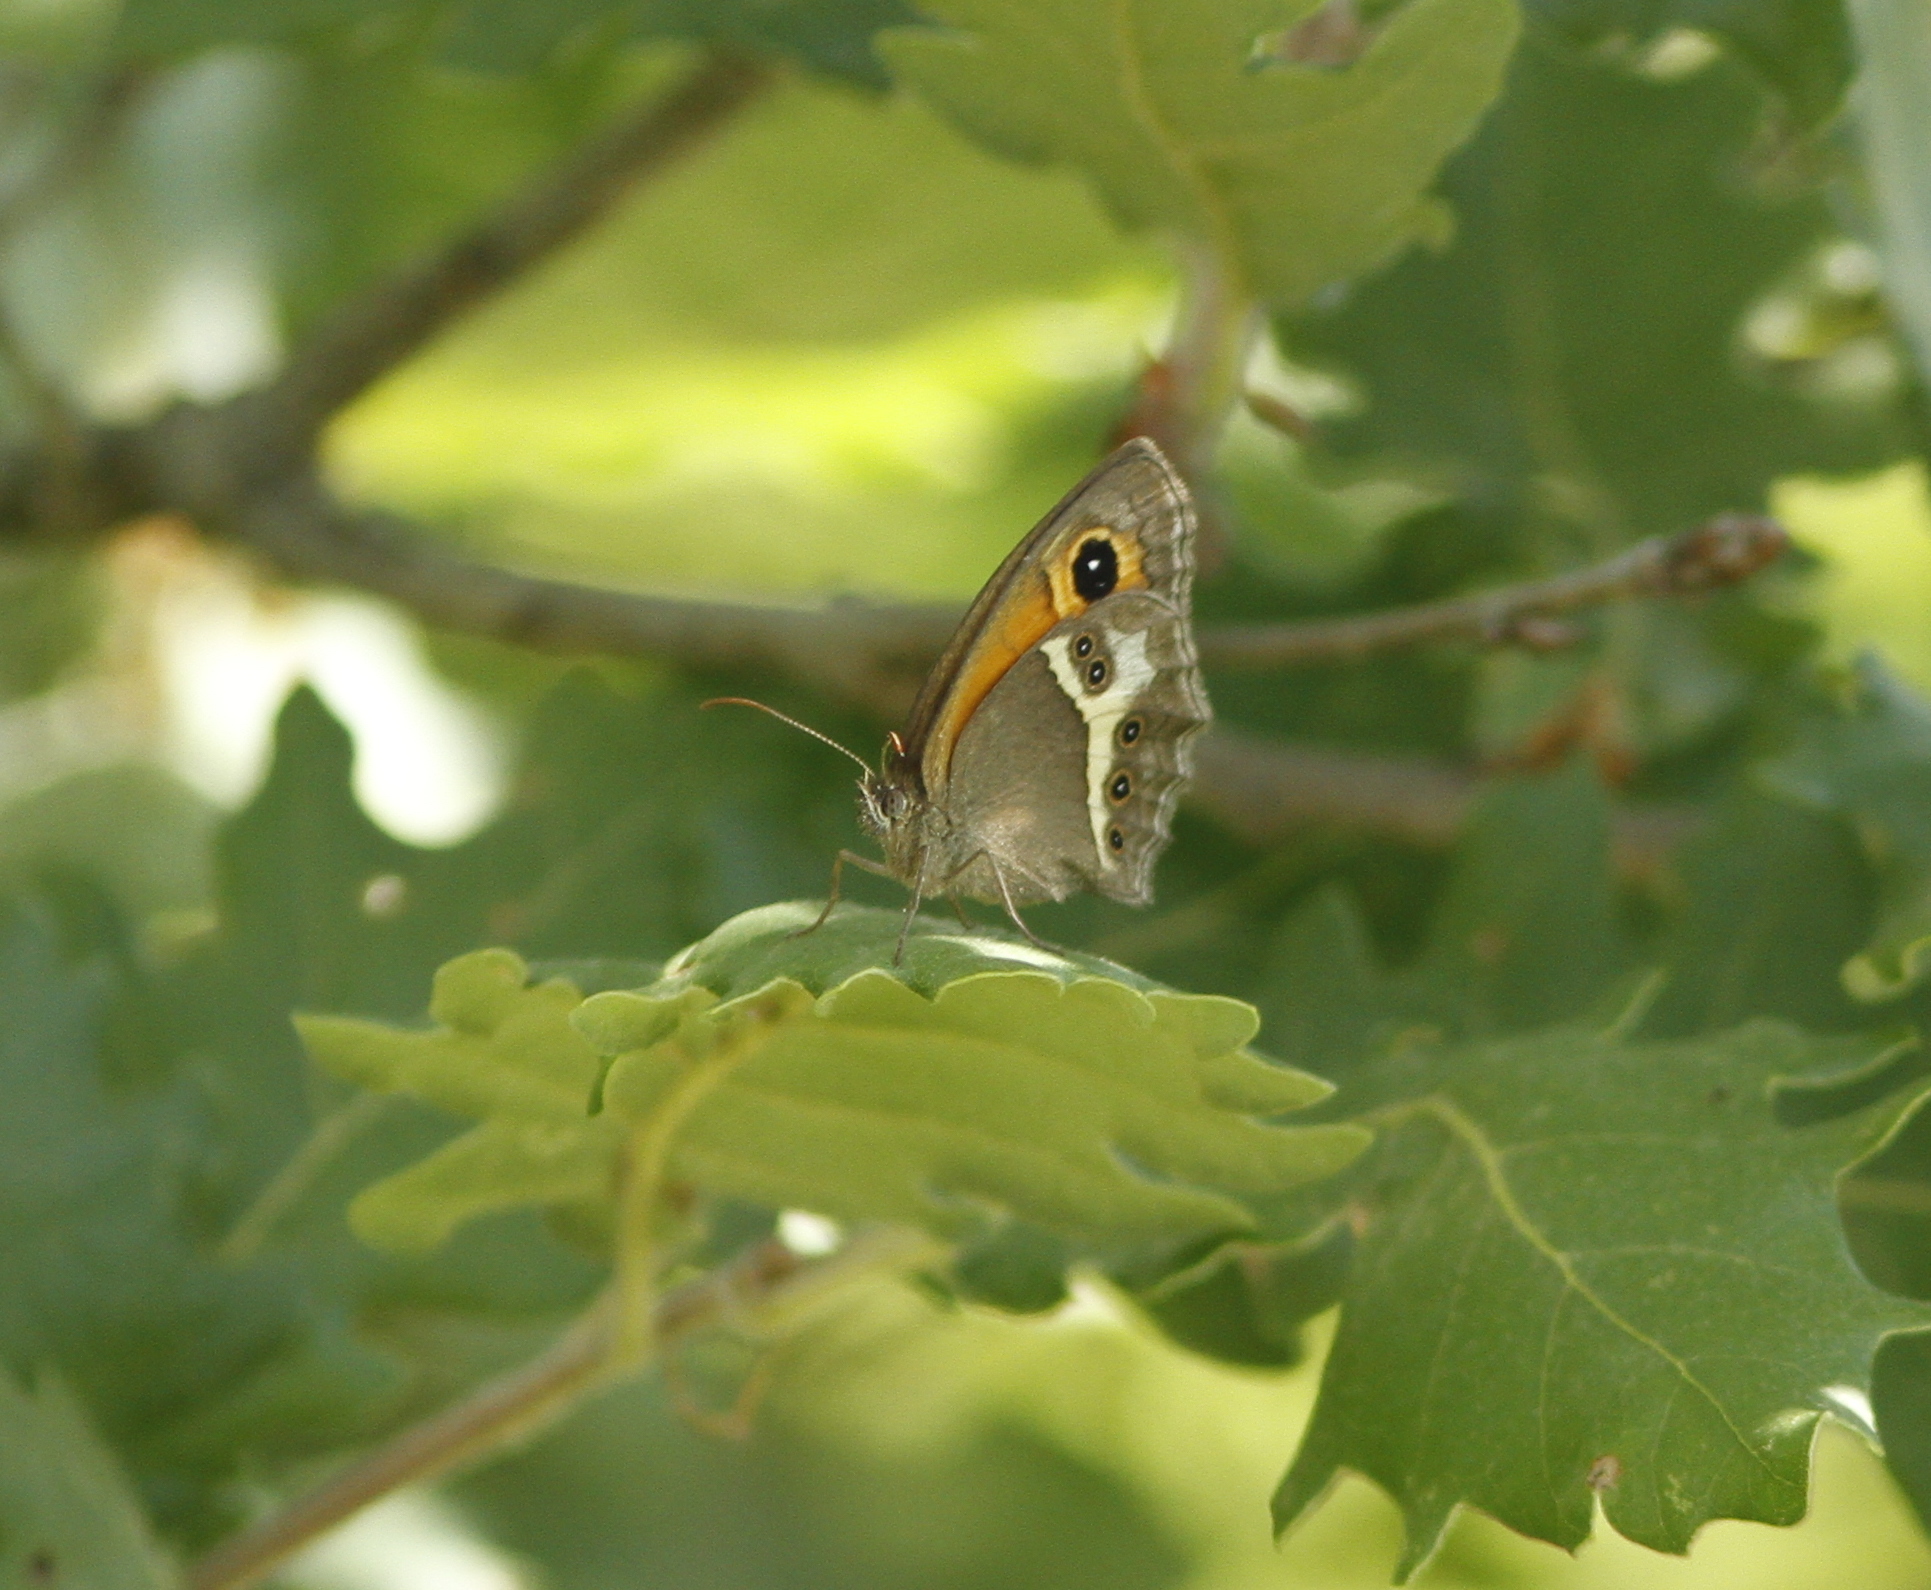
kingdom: Animalia
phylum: Arthropoda
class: Insecta
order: Lepidoptera
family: Nymphalidae
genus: Pyronia
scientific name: Pyronia bathseba
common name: Spanish gatekeeper
